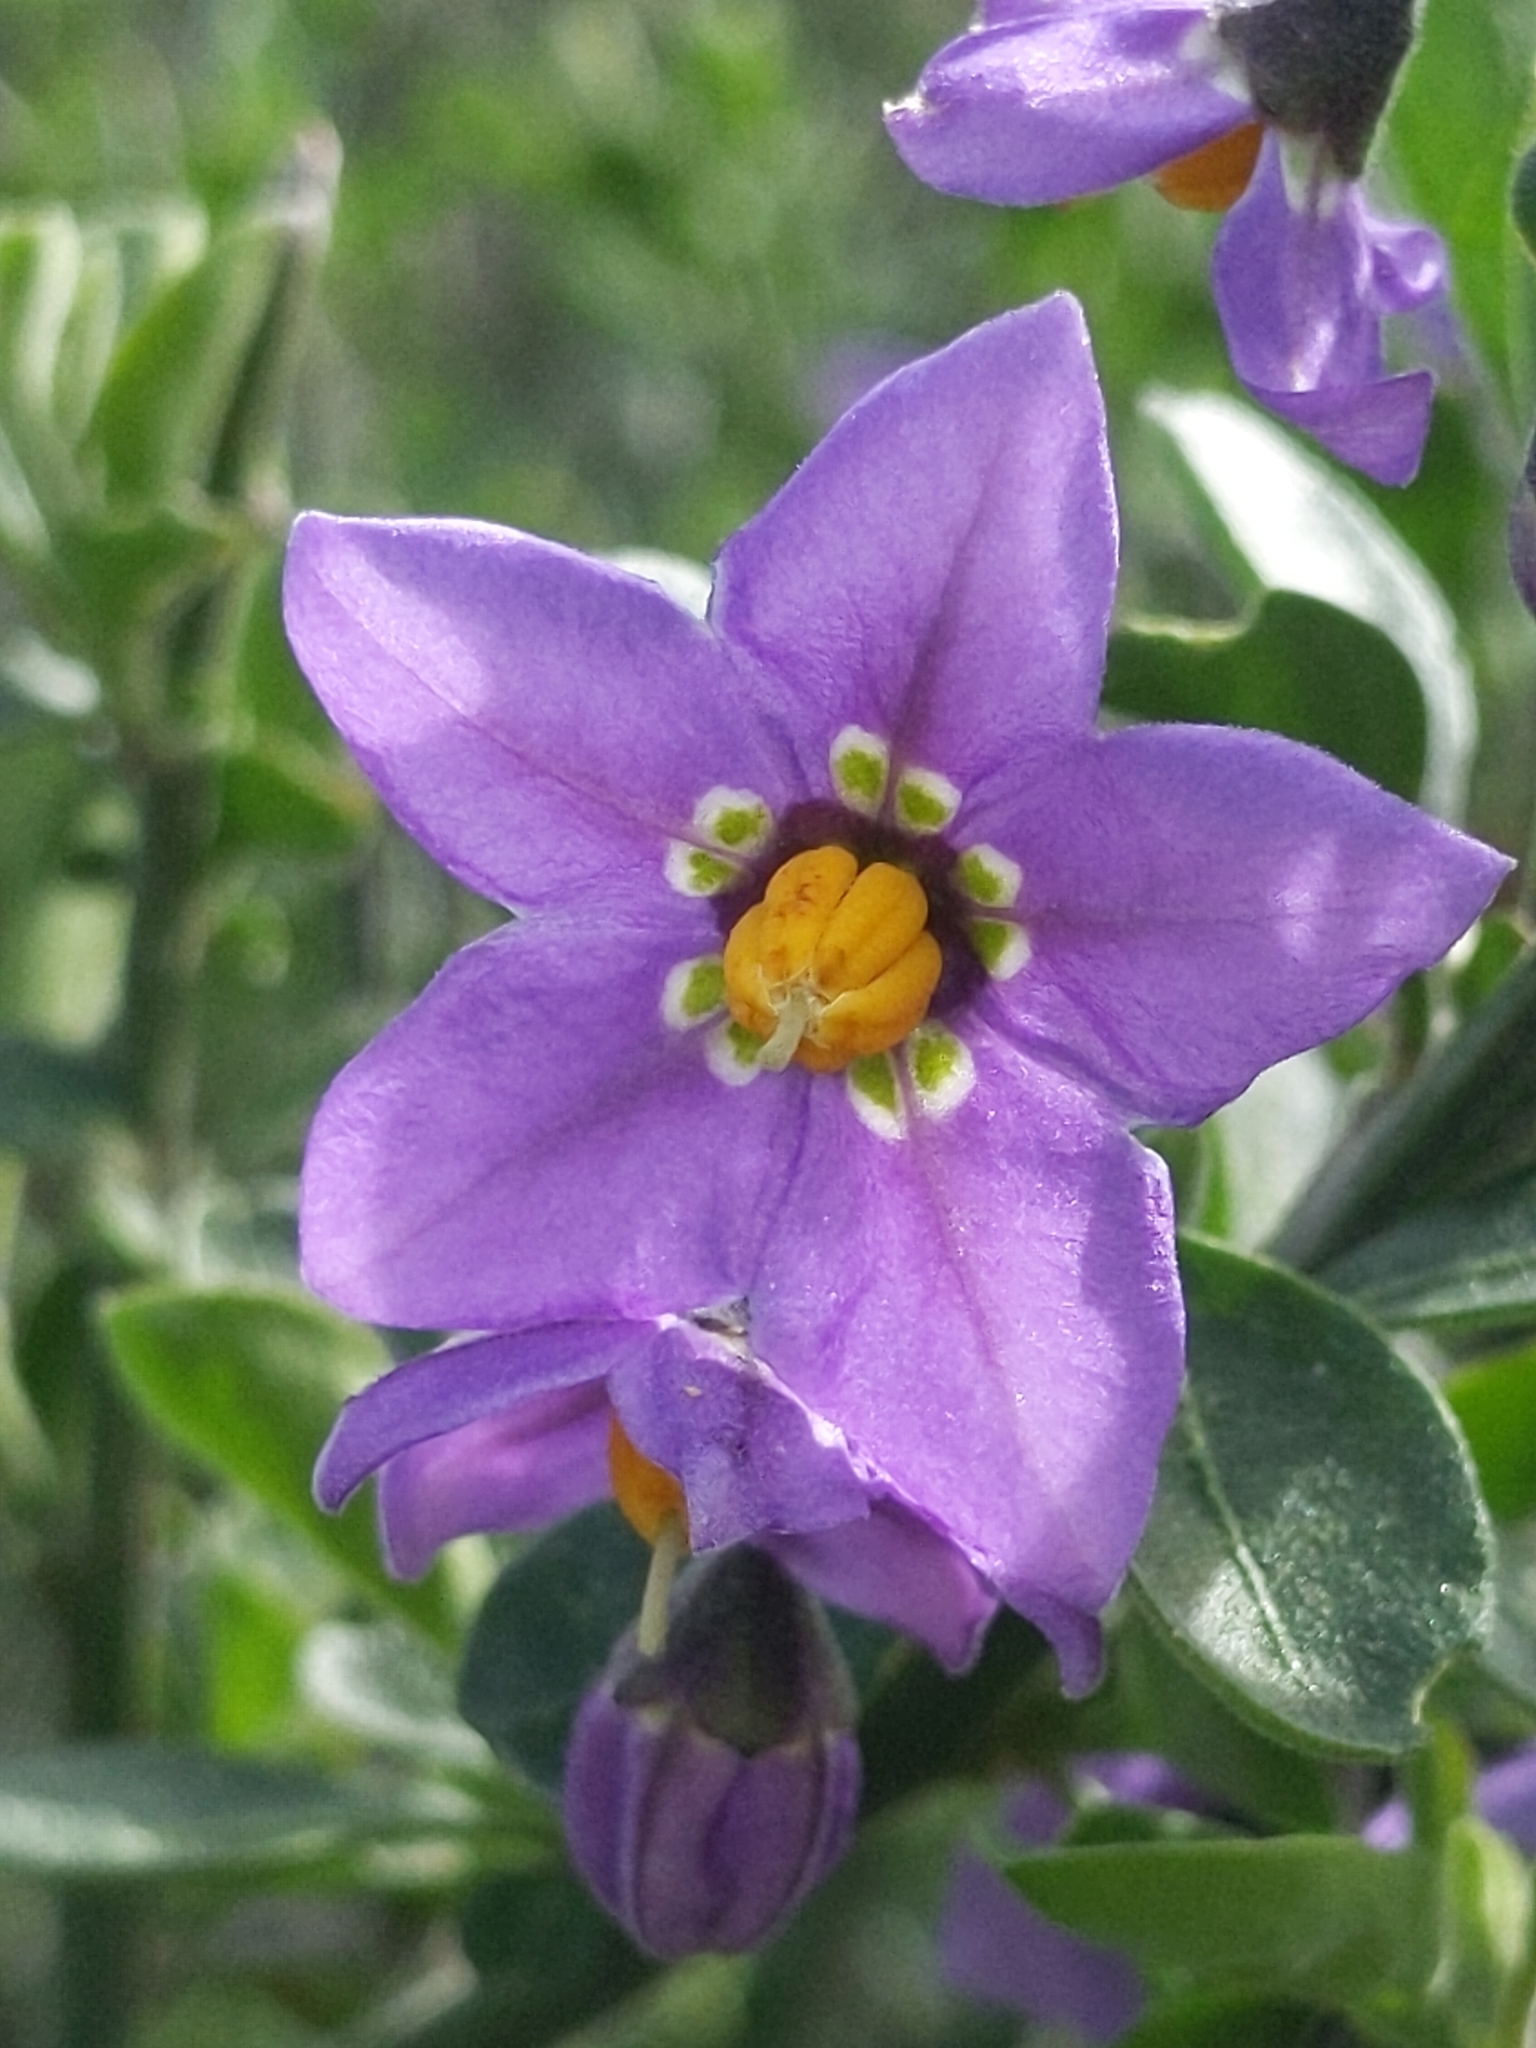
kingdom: Plantae
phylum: Tracheophyta
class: Magnoliopsida
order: Solanales
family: Solanaceae
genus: Solanum
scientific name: Solanum umbelliferum
